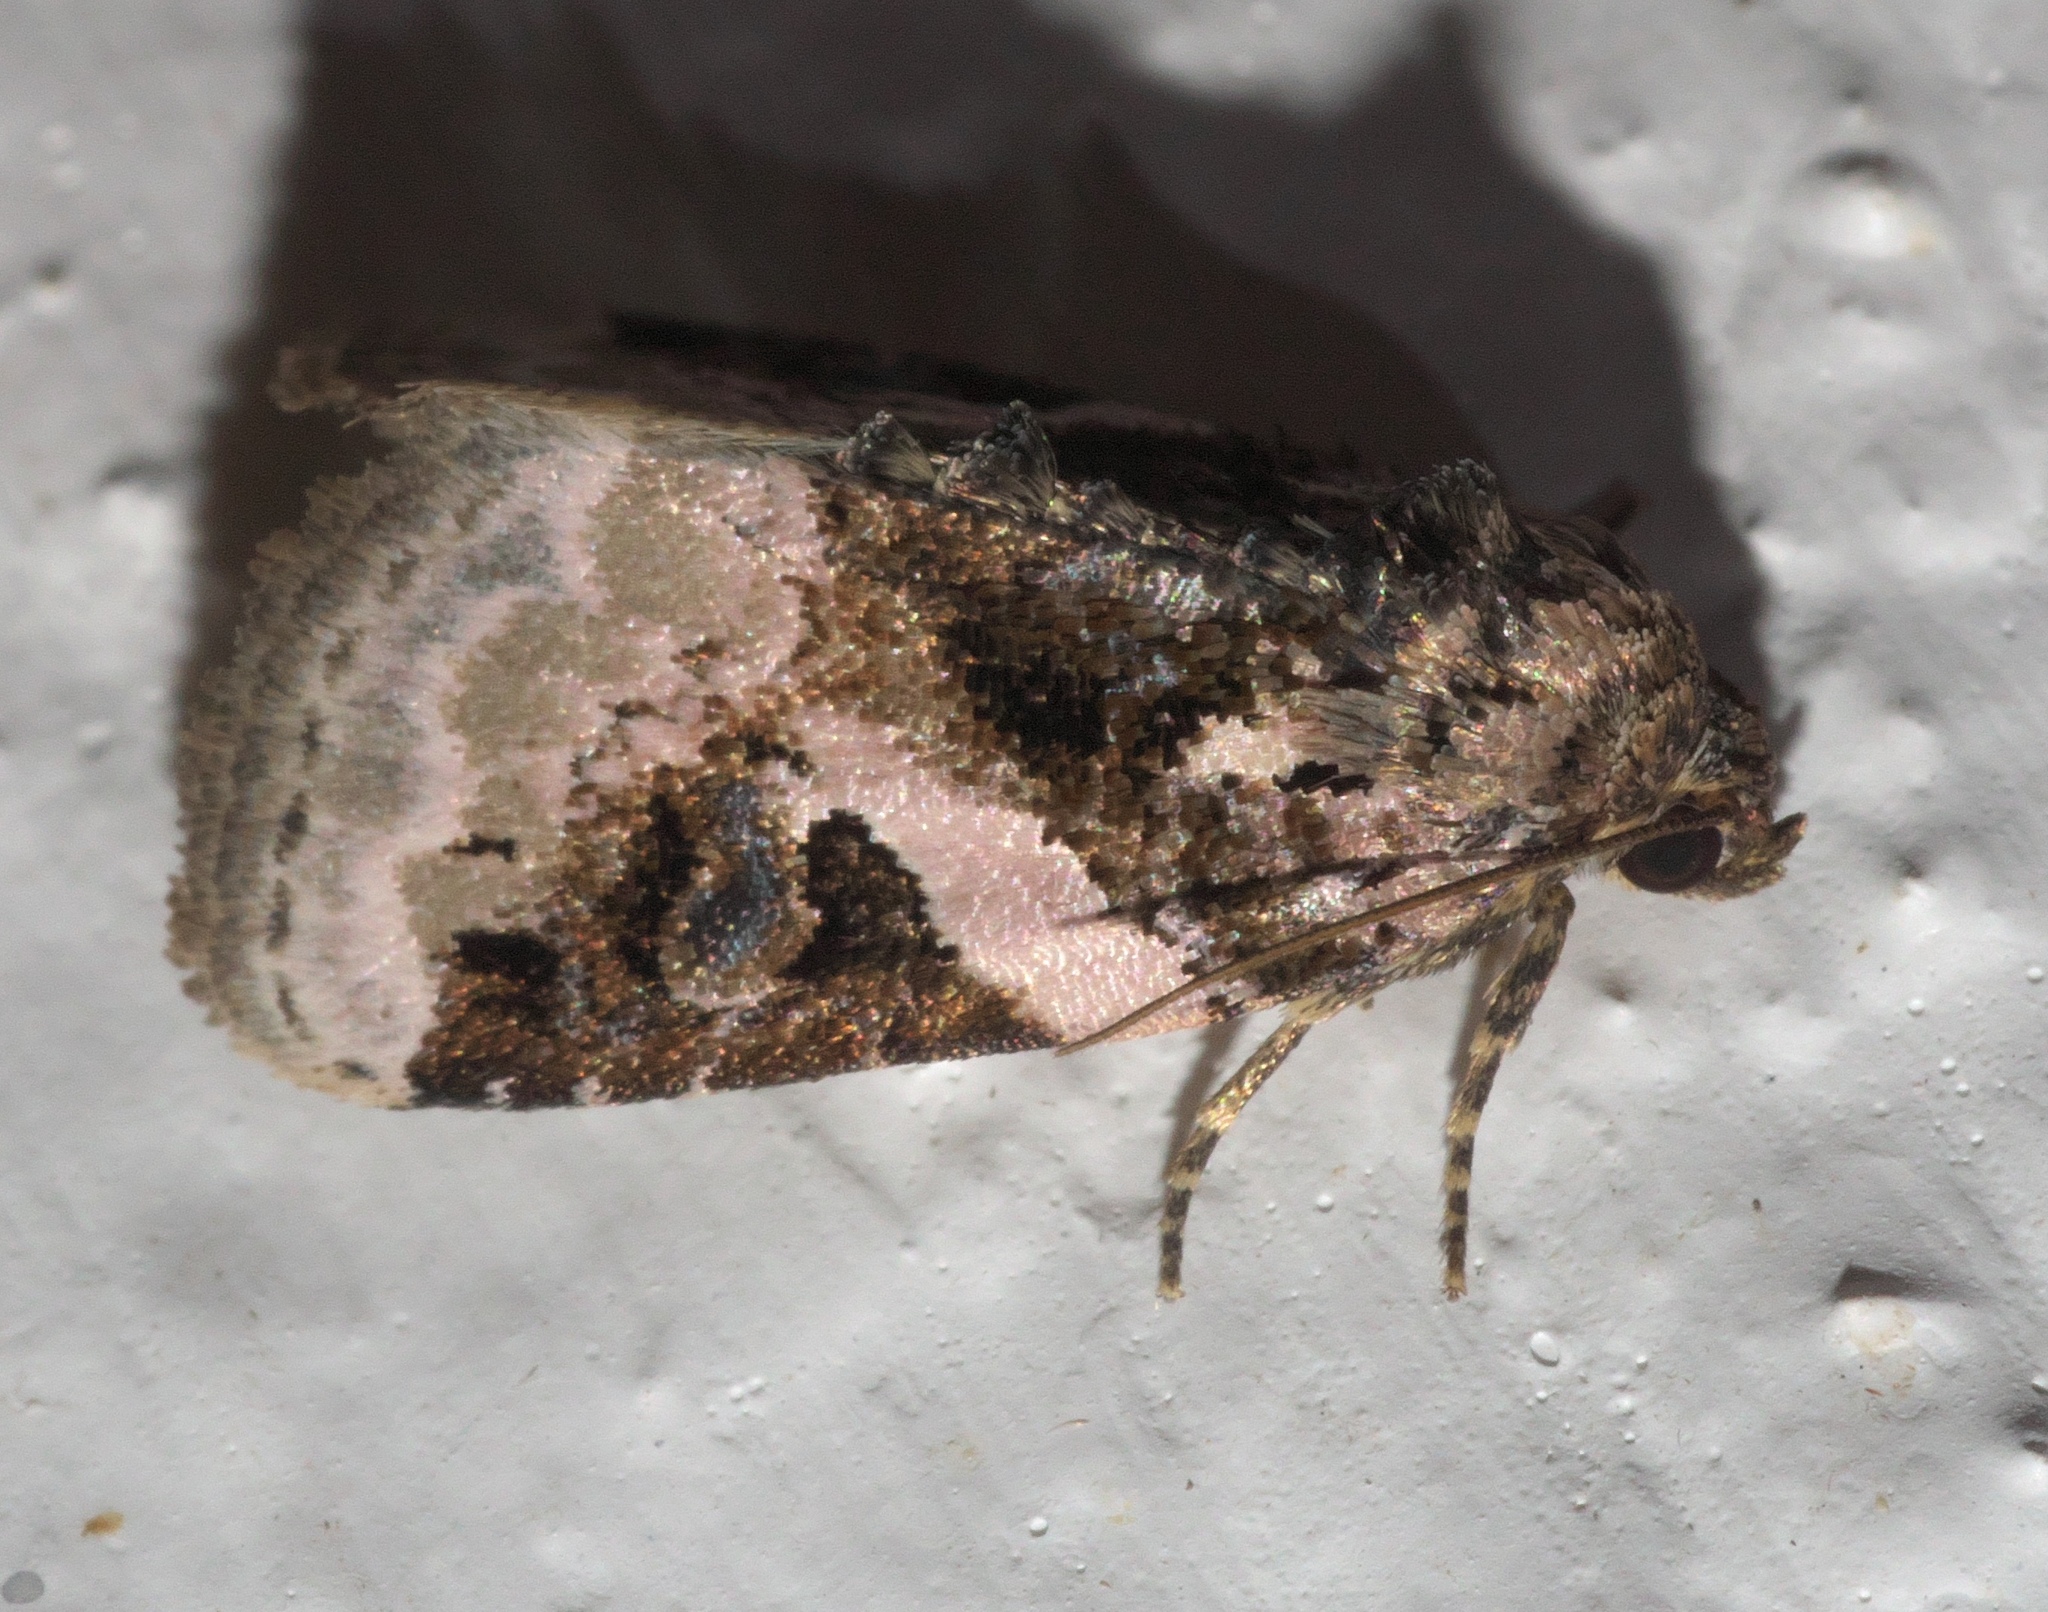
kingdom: Animalia
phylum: Arthropoda
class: Insecta
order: Lepidoptera
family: Noctuidae
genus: Pseudeustrotia
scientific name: Pseudeustrotia carneola
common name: Pink-barred lithacodia moth
